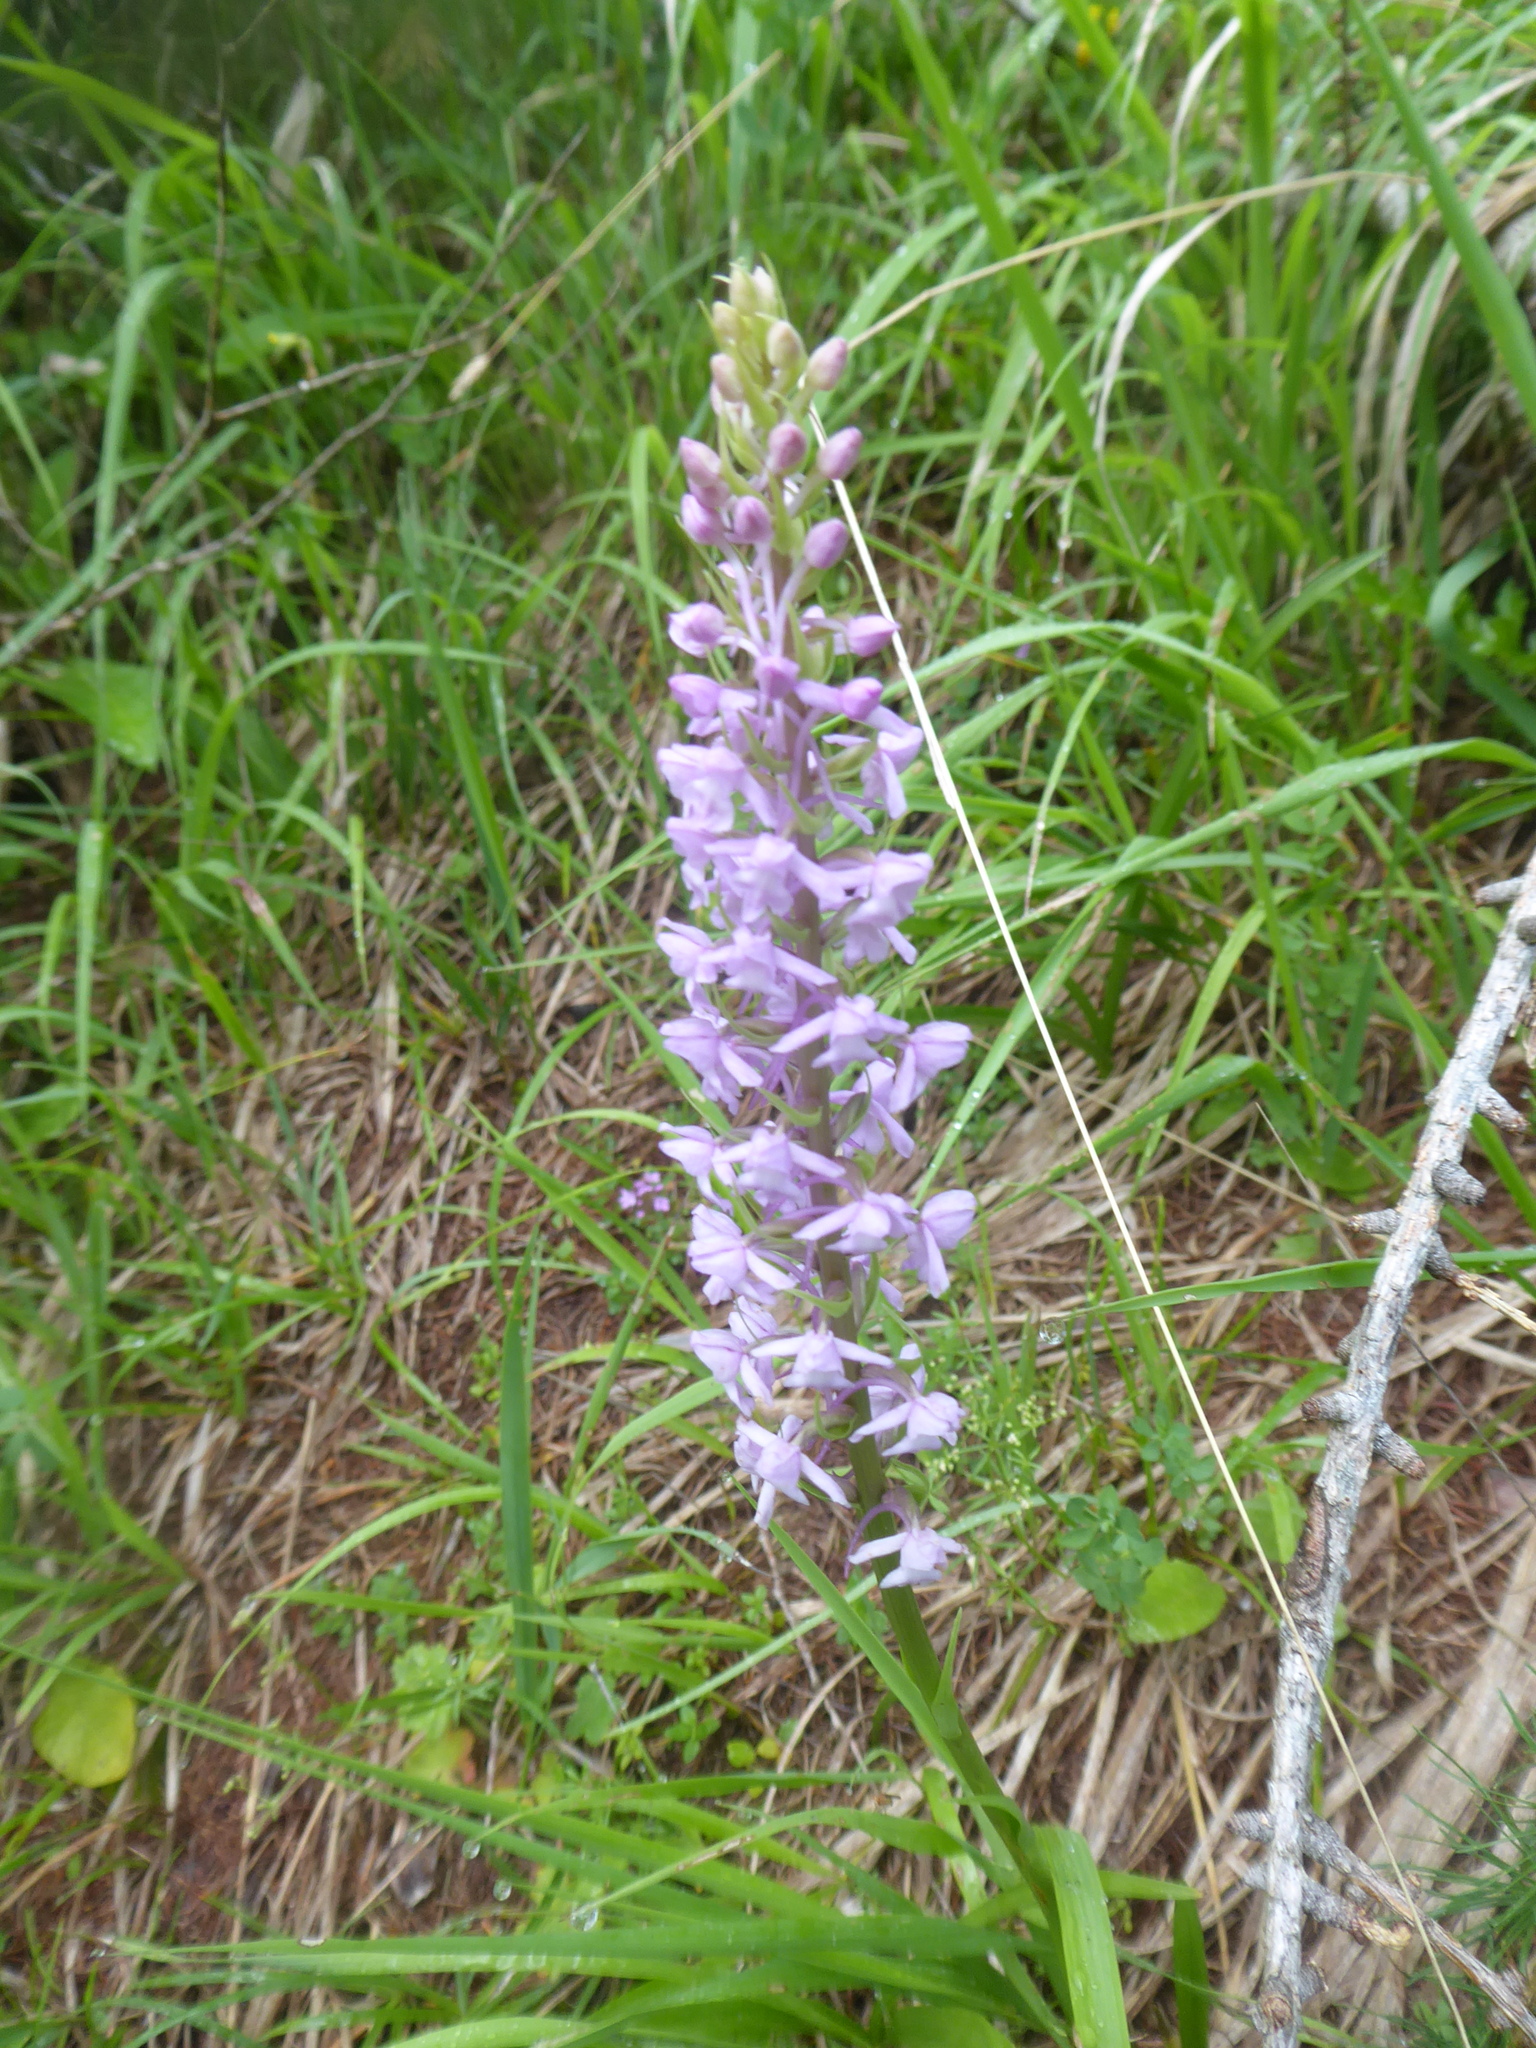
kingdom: Plantae
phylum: Tracheophyta
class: Liliopsida
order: Asparagales
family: Orchidaceae
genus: Gymnadenia
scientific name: Gymnadenia conopsea
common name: Fragrant orchid
